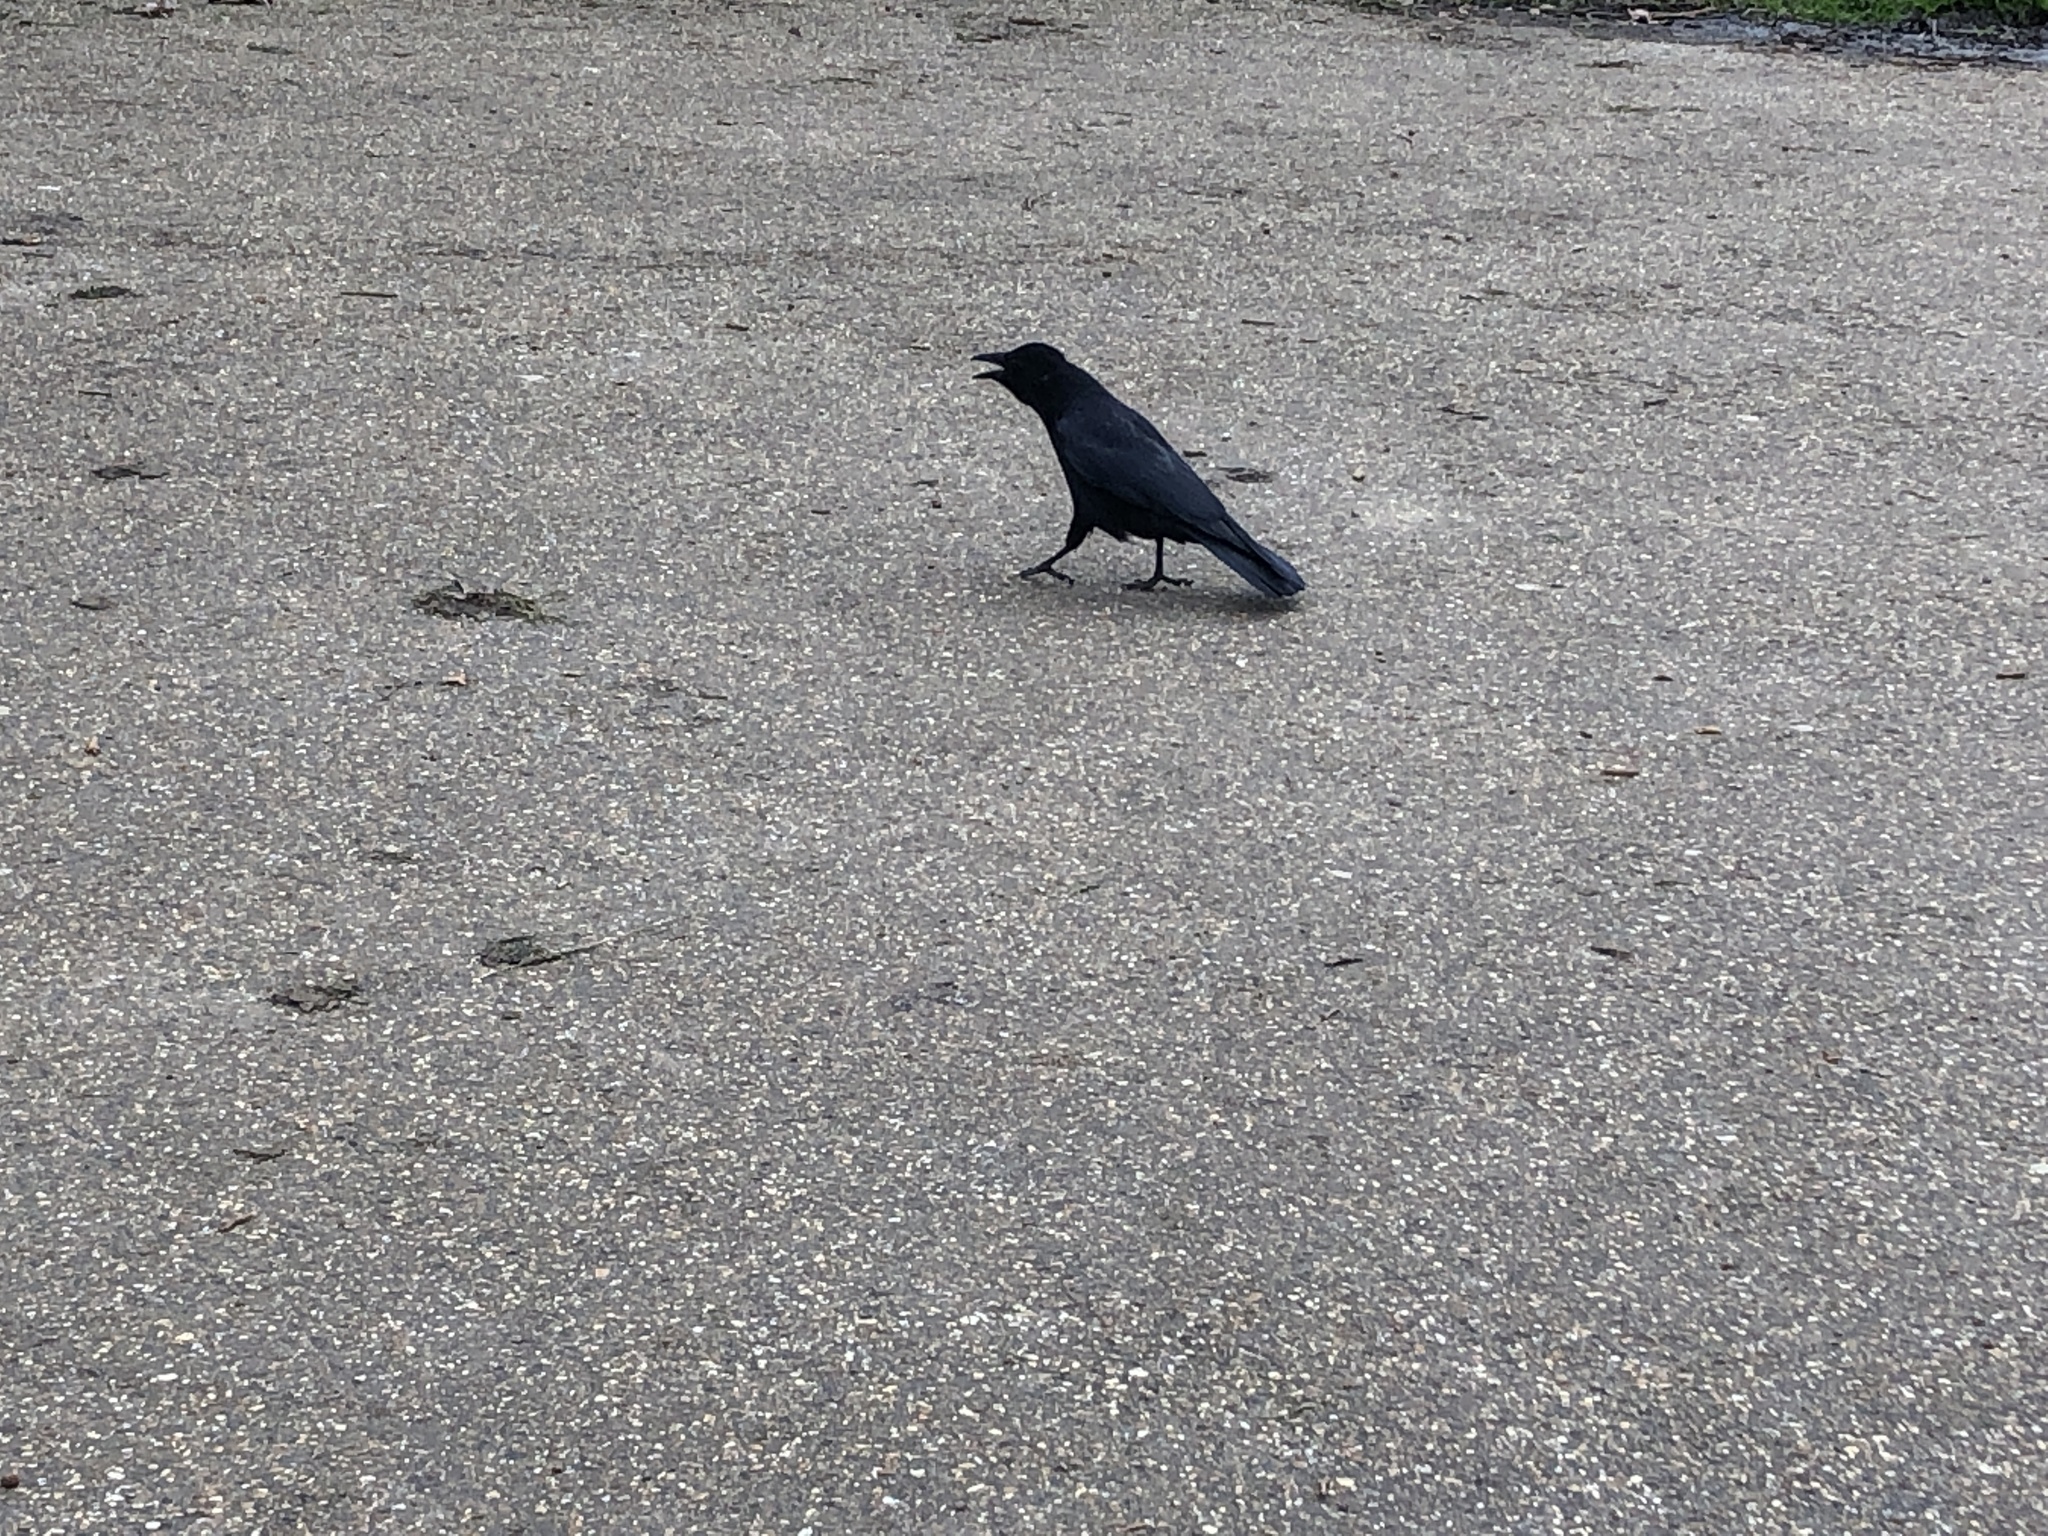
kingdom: Animalia
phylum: Chordata
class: Aves
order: Passeriformes
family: Corvidae
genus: Corvus
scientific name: Corvus corone
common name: Carrion crow
